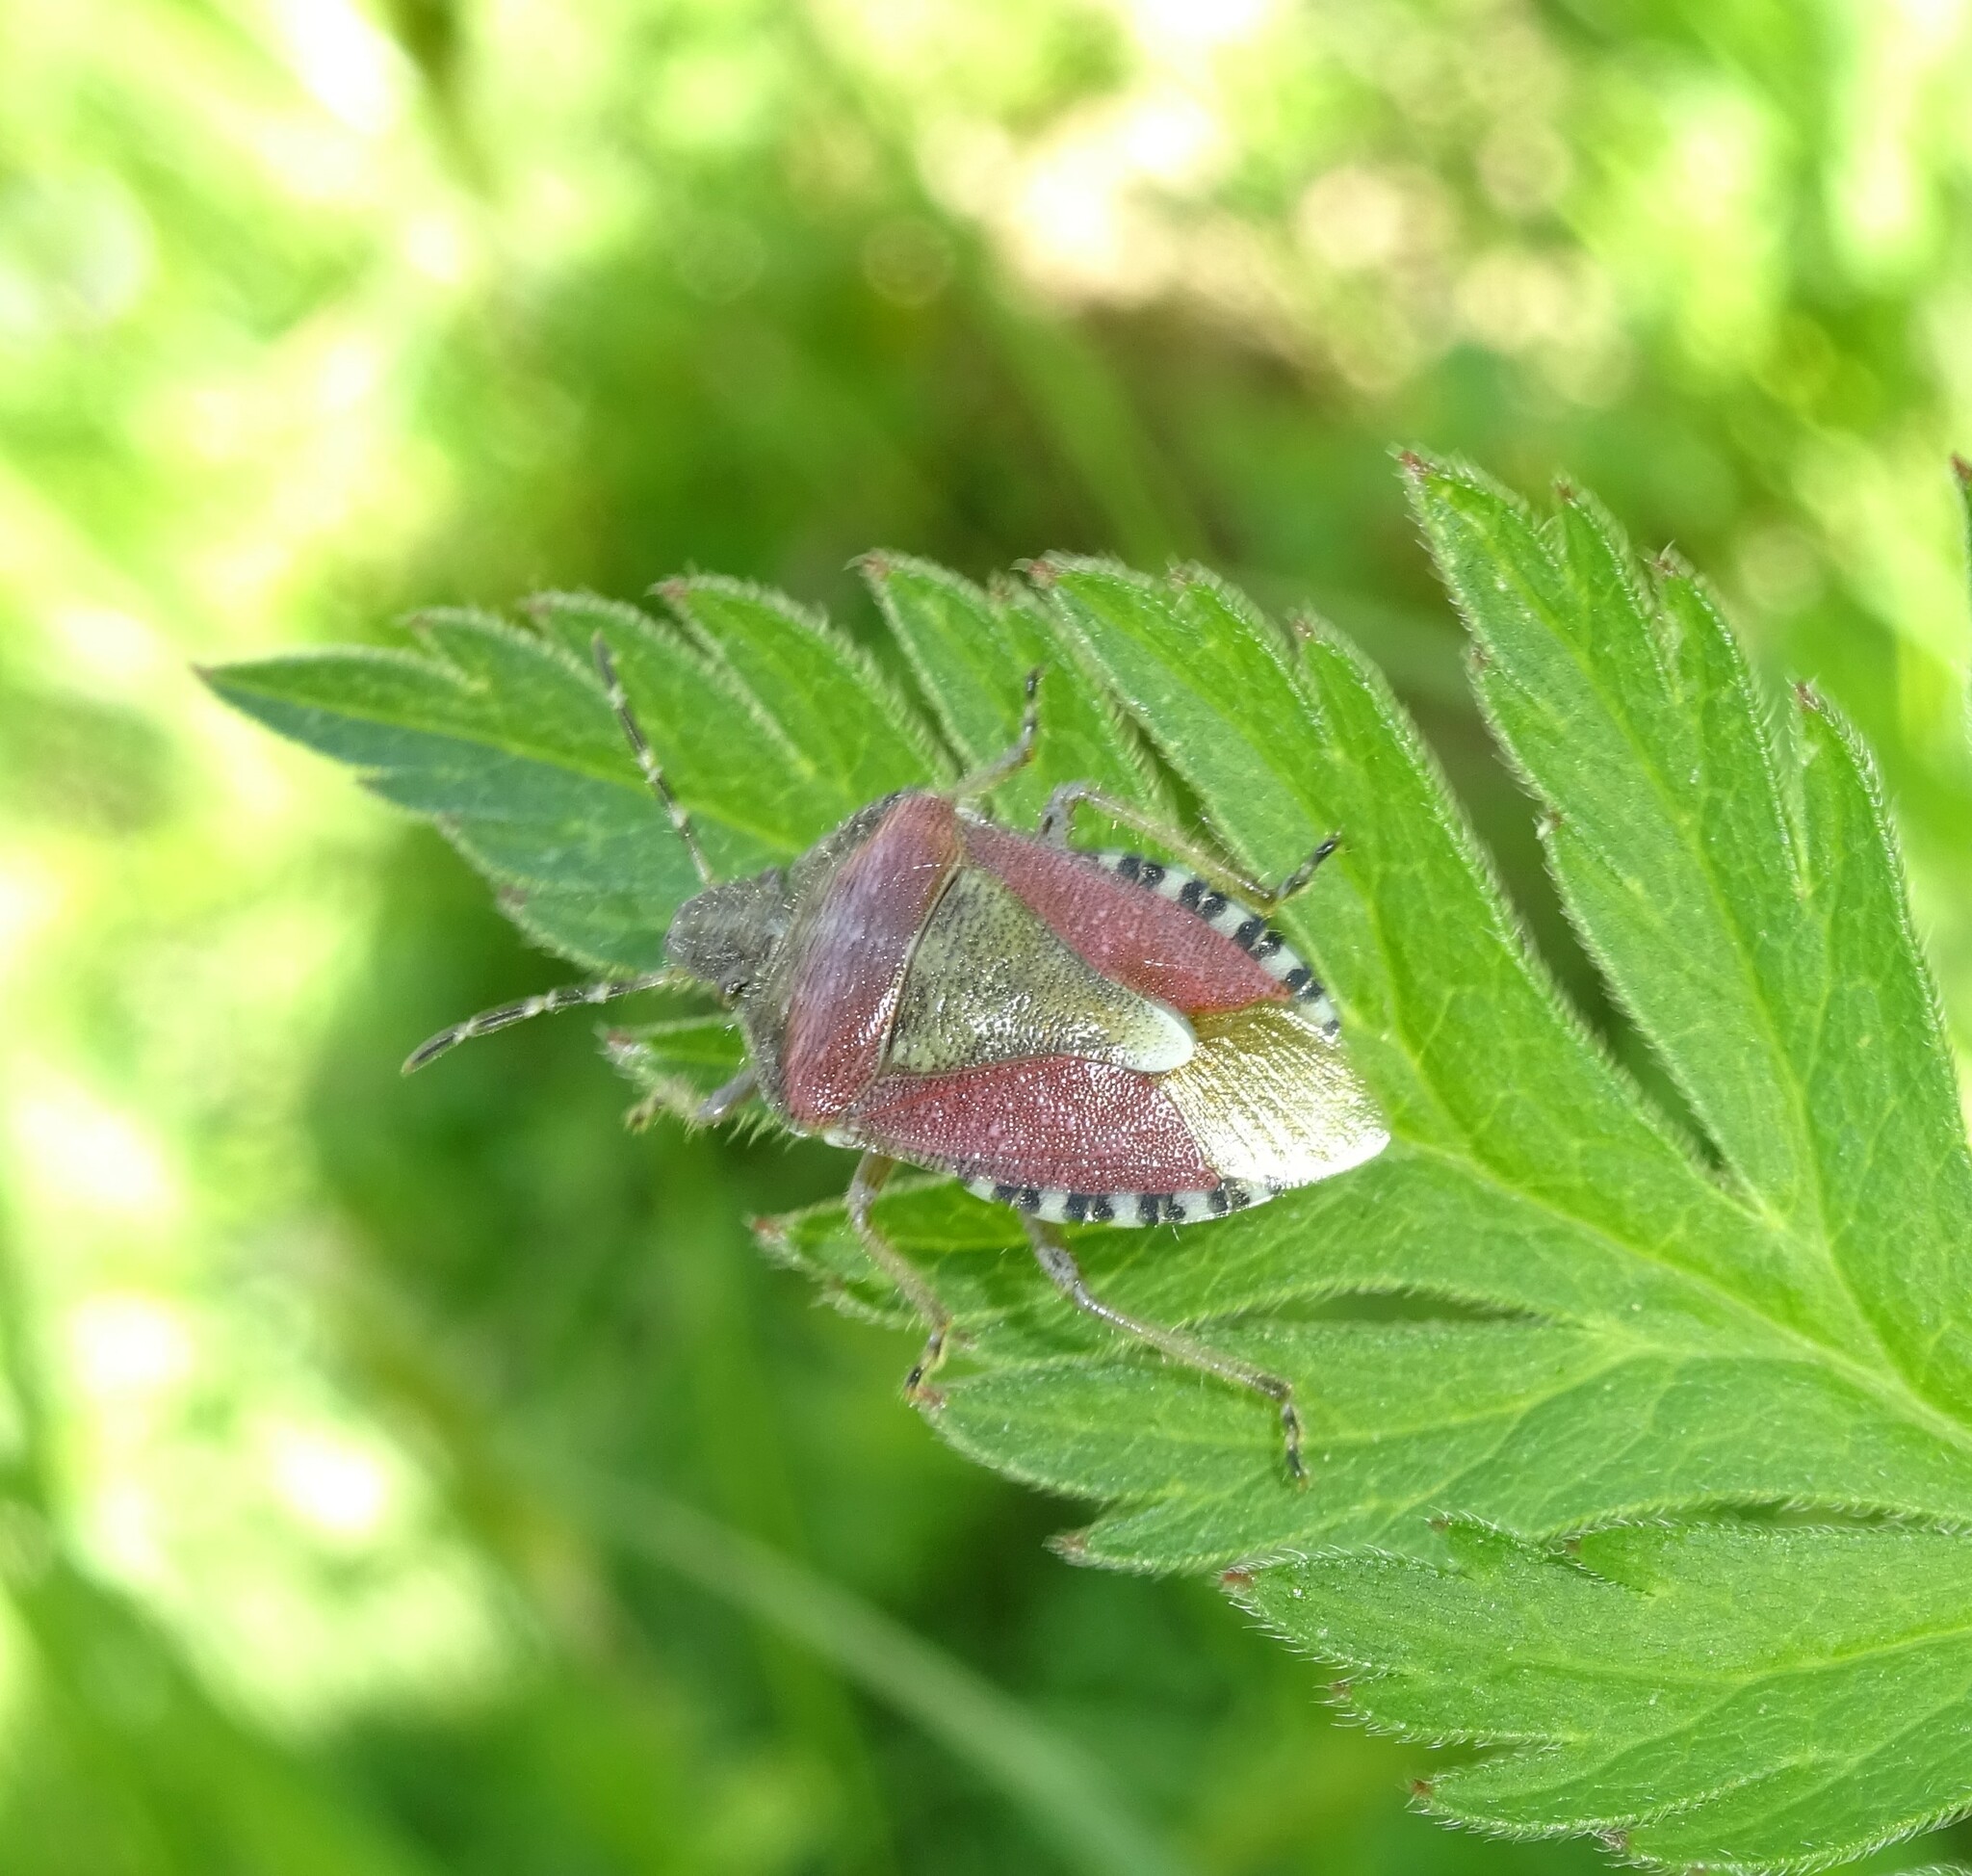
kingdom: Animalia
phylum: Arthropoda
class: Insecta
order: Hemiptera
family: Pentatomidae
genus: Dolycoris
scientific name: Dolycoris baccarum
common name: Sloe bug
